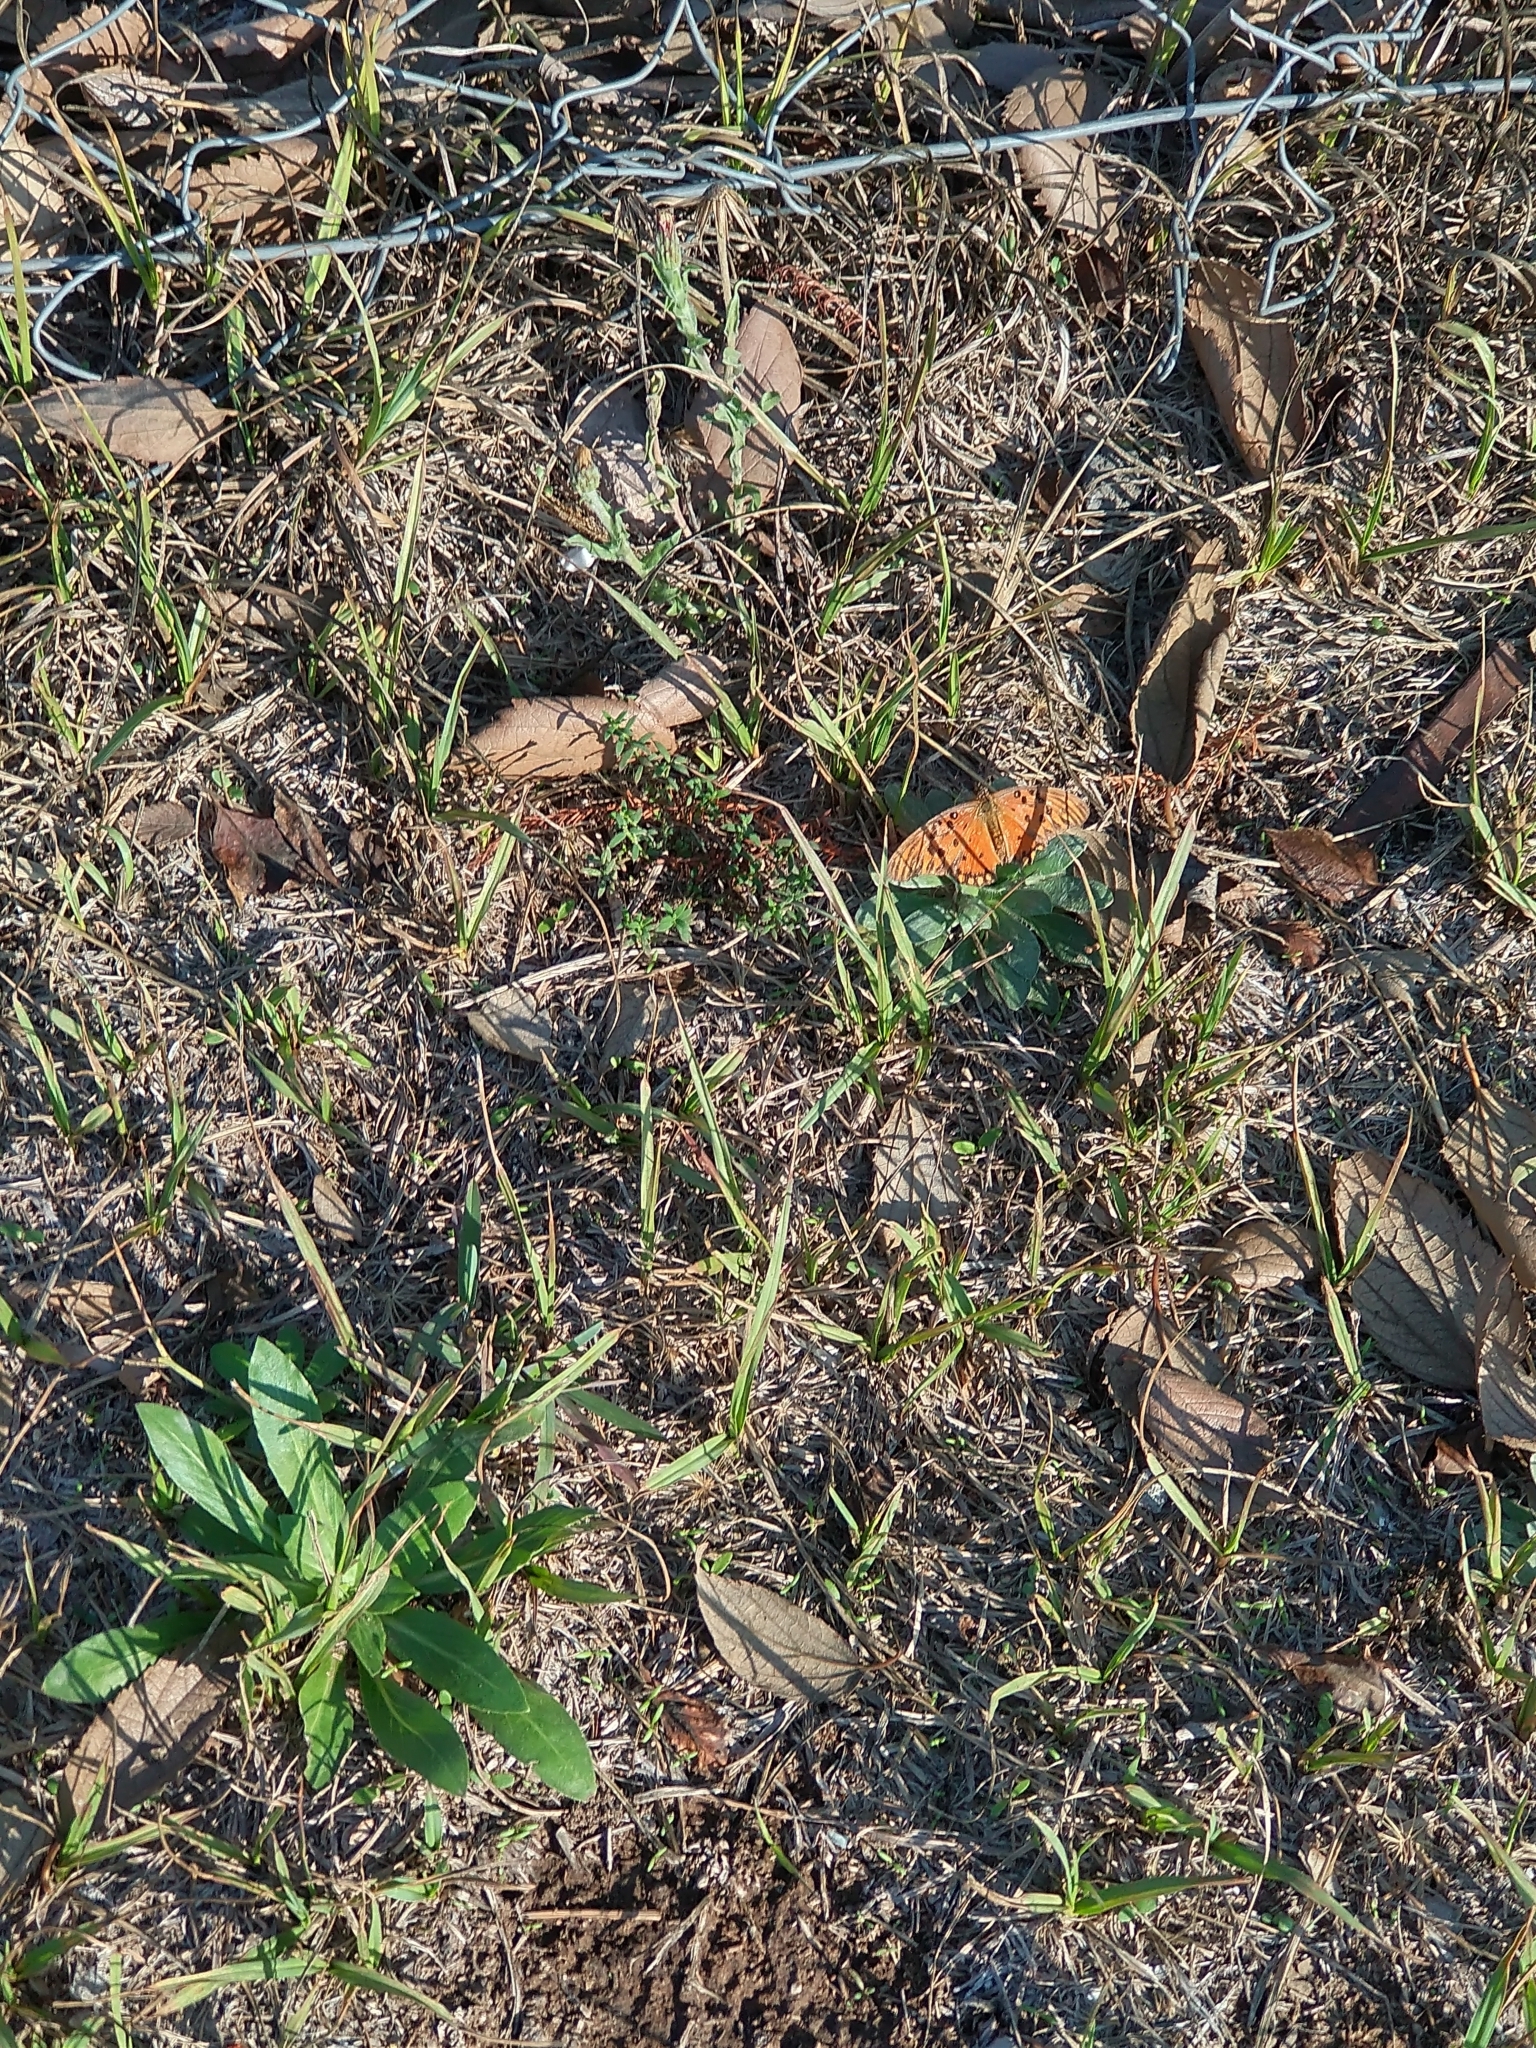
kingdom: Animalia
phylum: Arthropoda
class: Insecta
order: Lepidoptera
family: Nymphalidae
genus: Dione
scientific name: Dione vanillae
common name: Gulf fritillary
